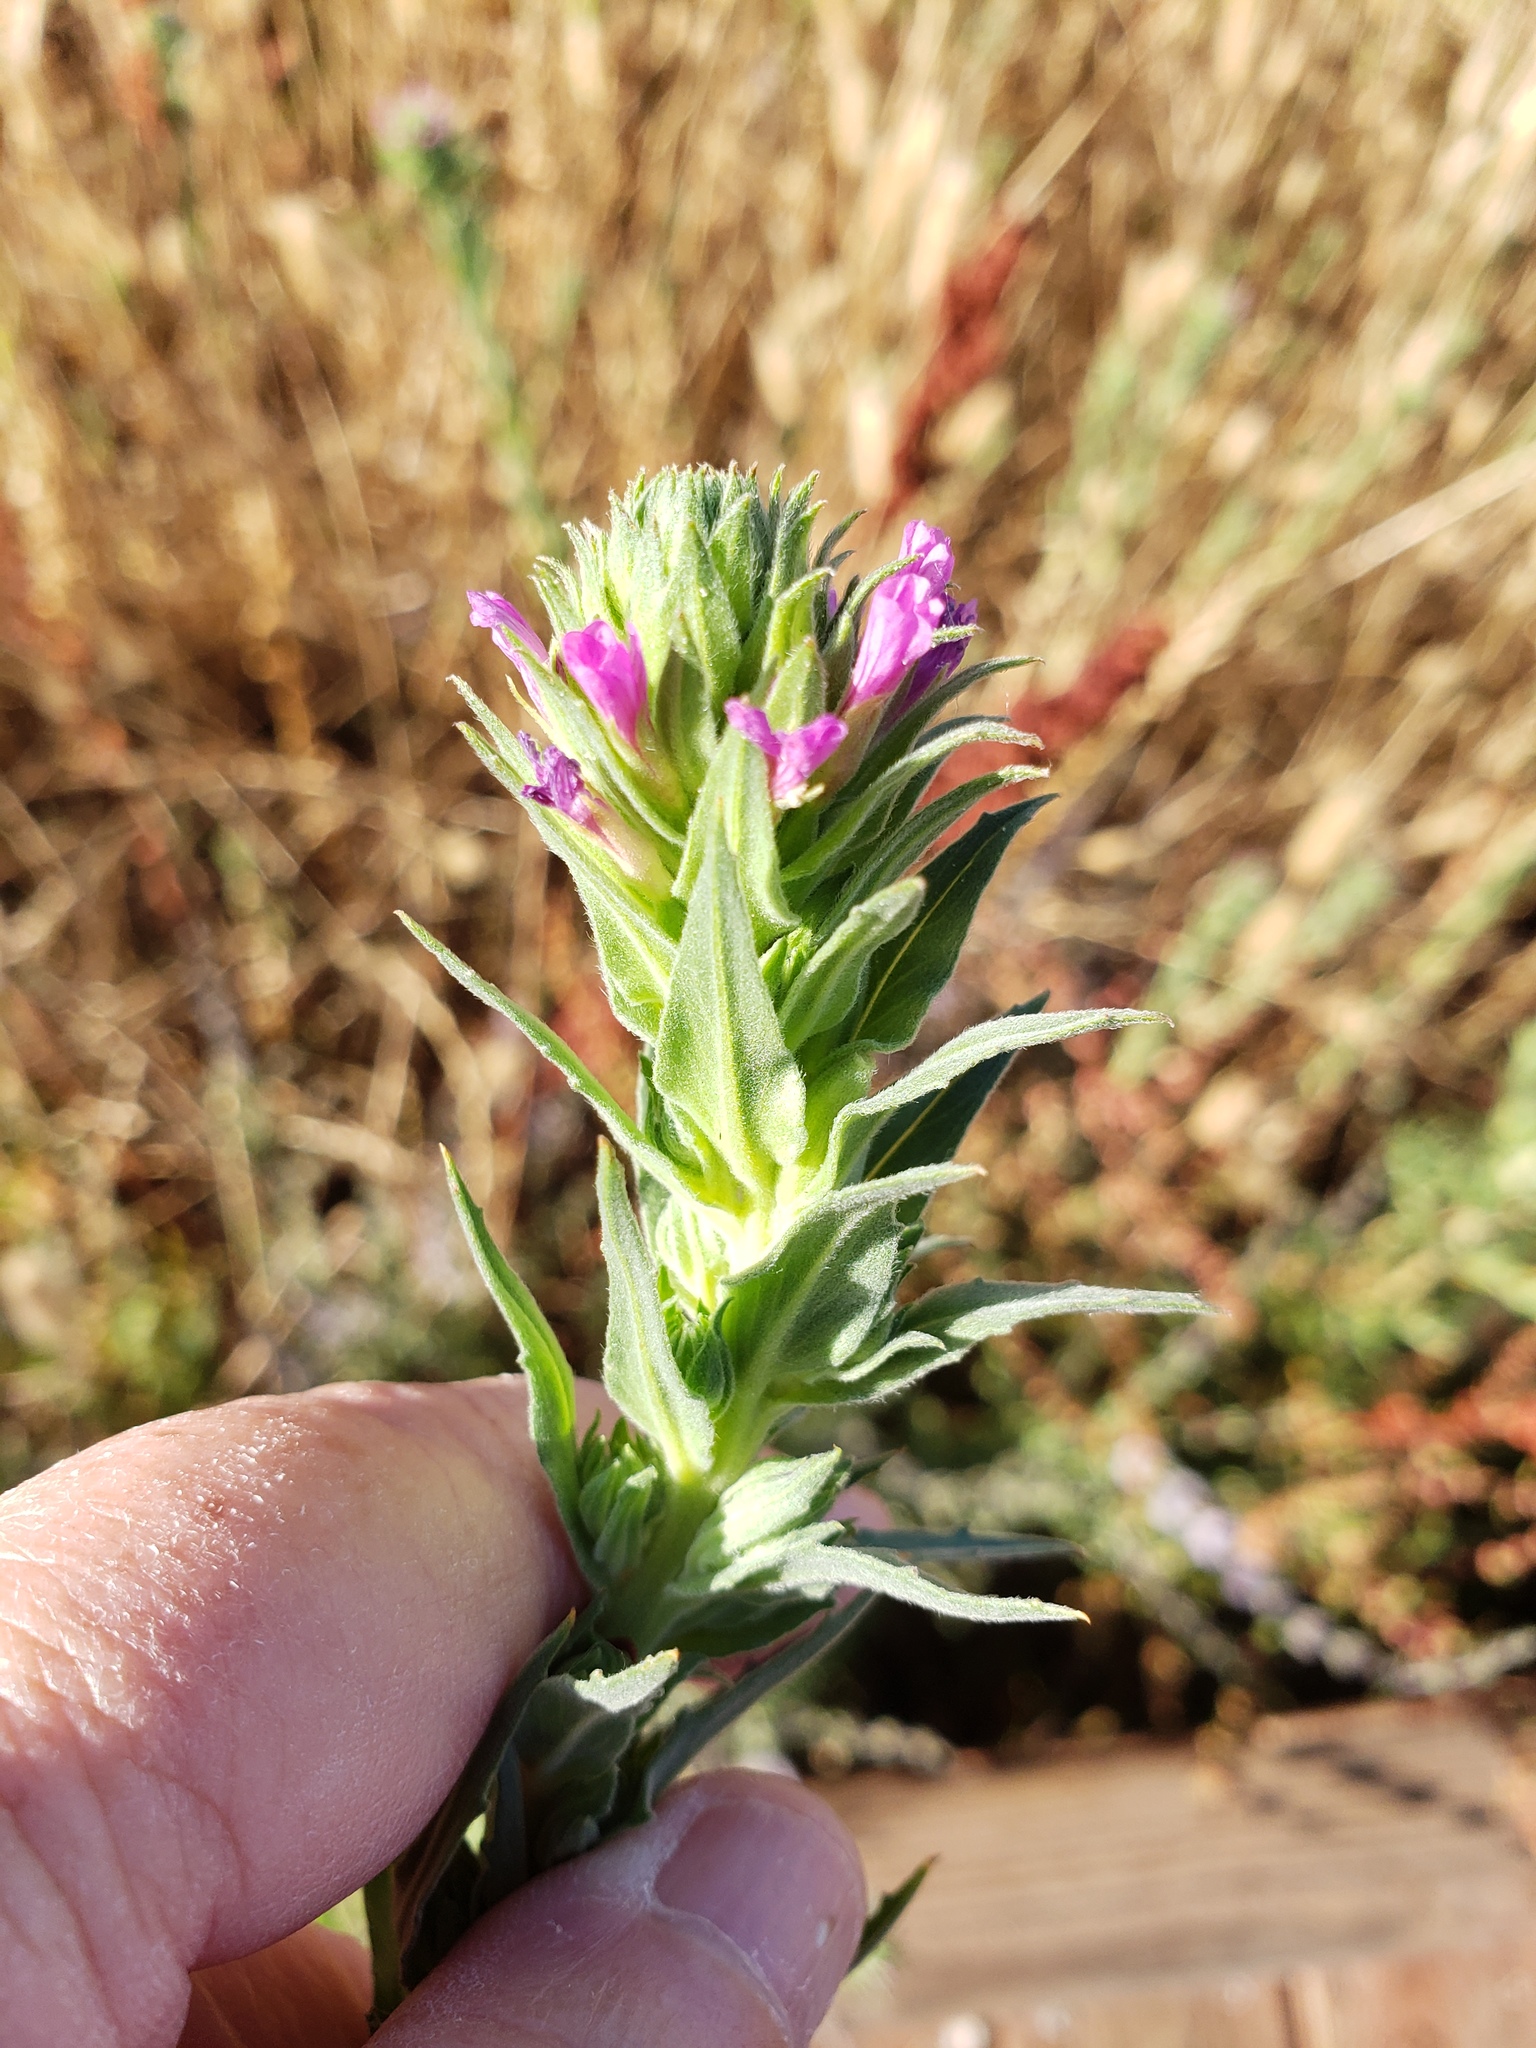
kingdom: Plantae
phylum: Tracheophyta
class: Magnoliopsida
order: Myrtales
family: Onagraceae
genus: Epilobium
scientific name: Epilobium densiflorum
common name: Dense spike-primrose
